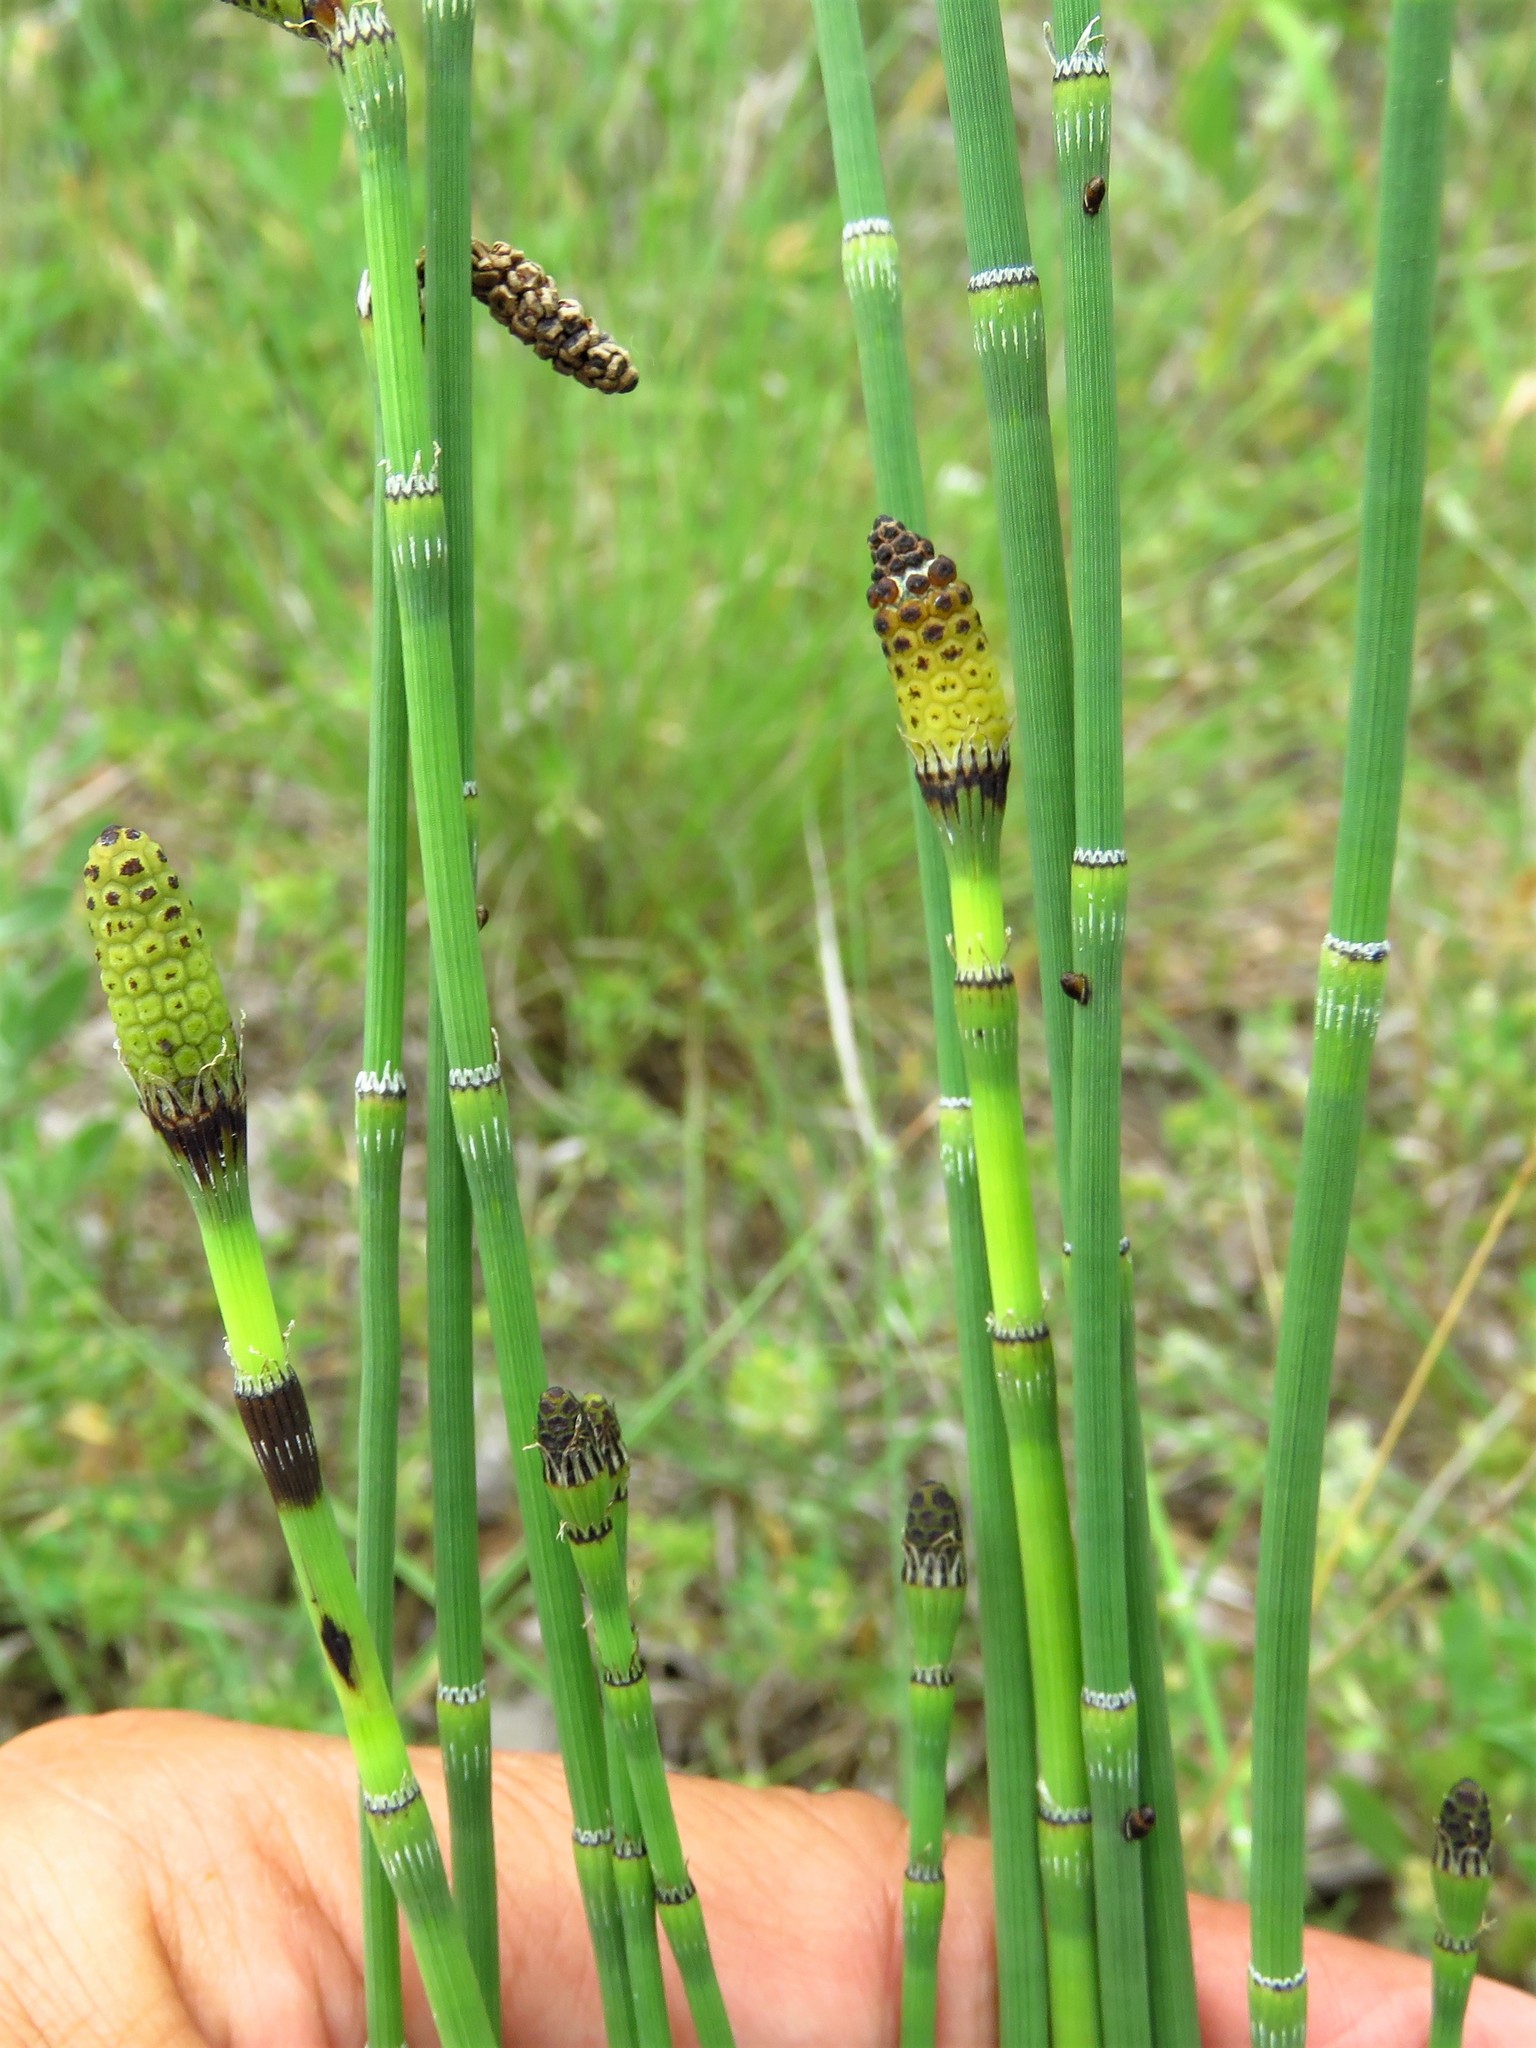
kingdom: Plantae
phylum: Tracheophyta
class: Polypodiopsida
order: Equisetales
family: Equisetaceae
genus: Equisetum
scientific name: Equisetum laevigatum
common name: Smooth scouring-rush
